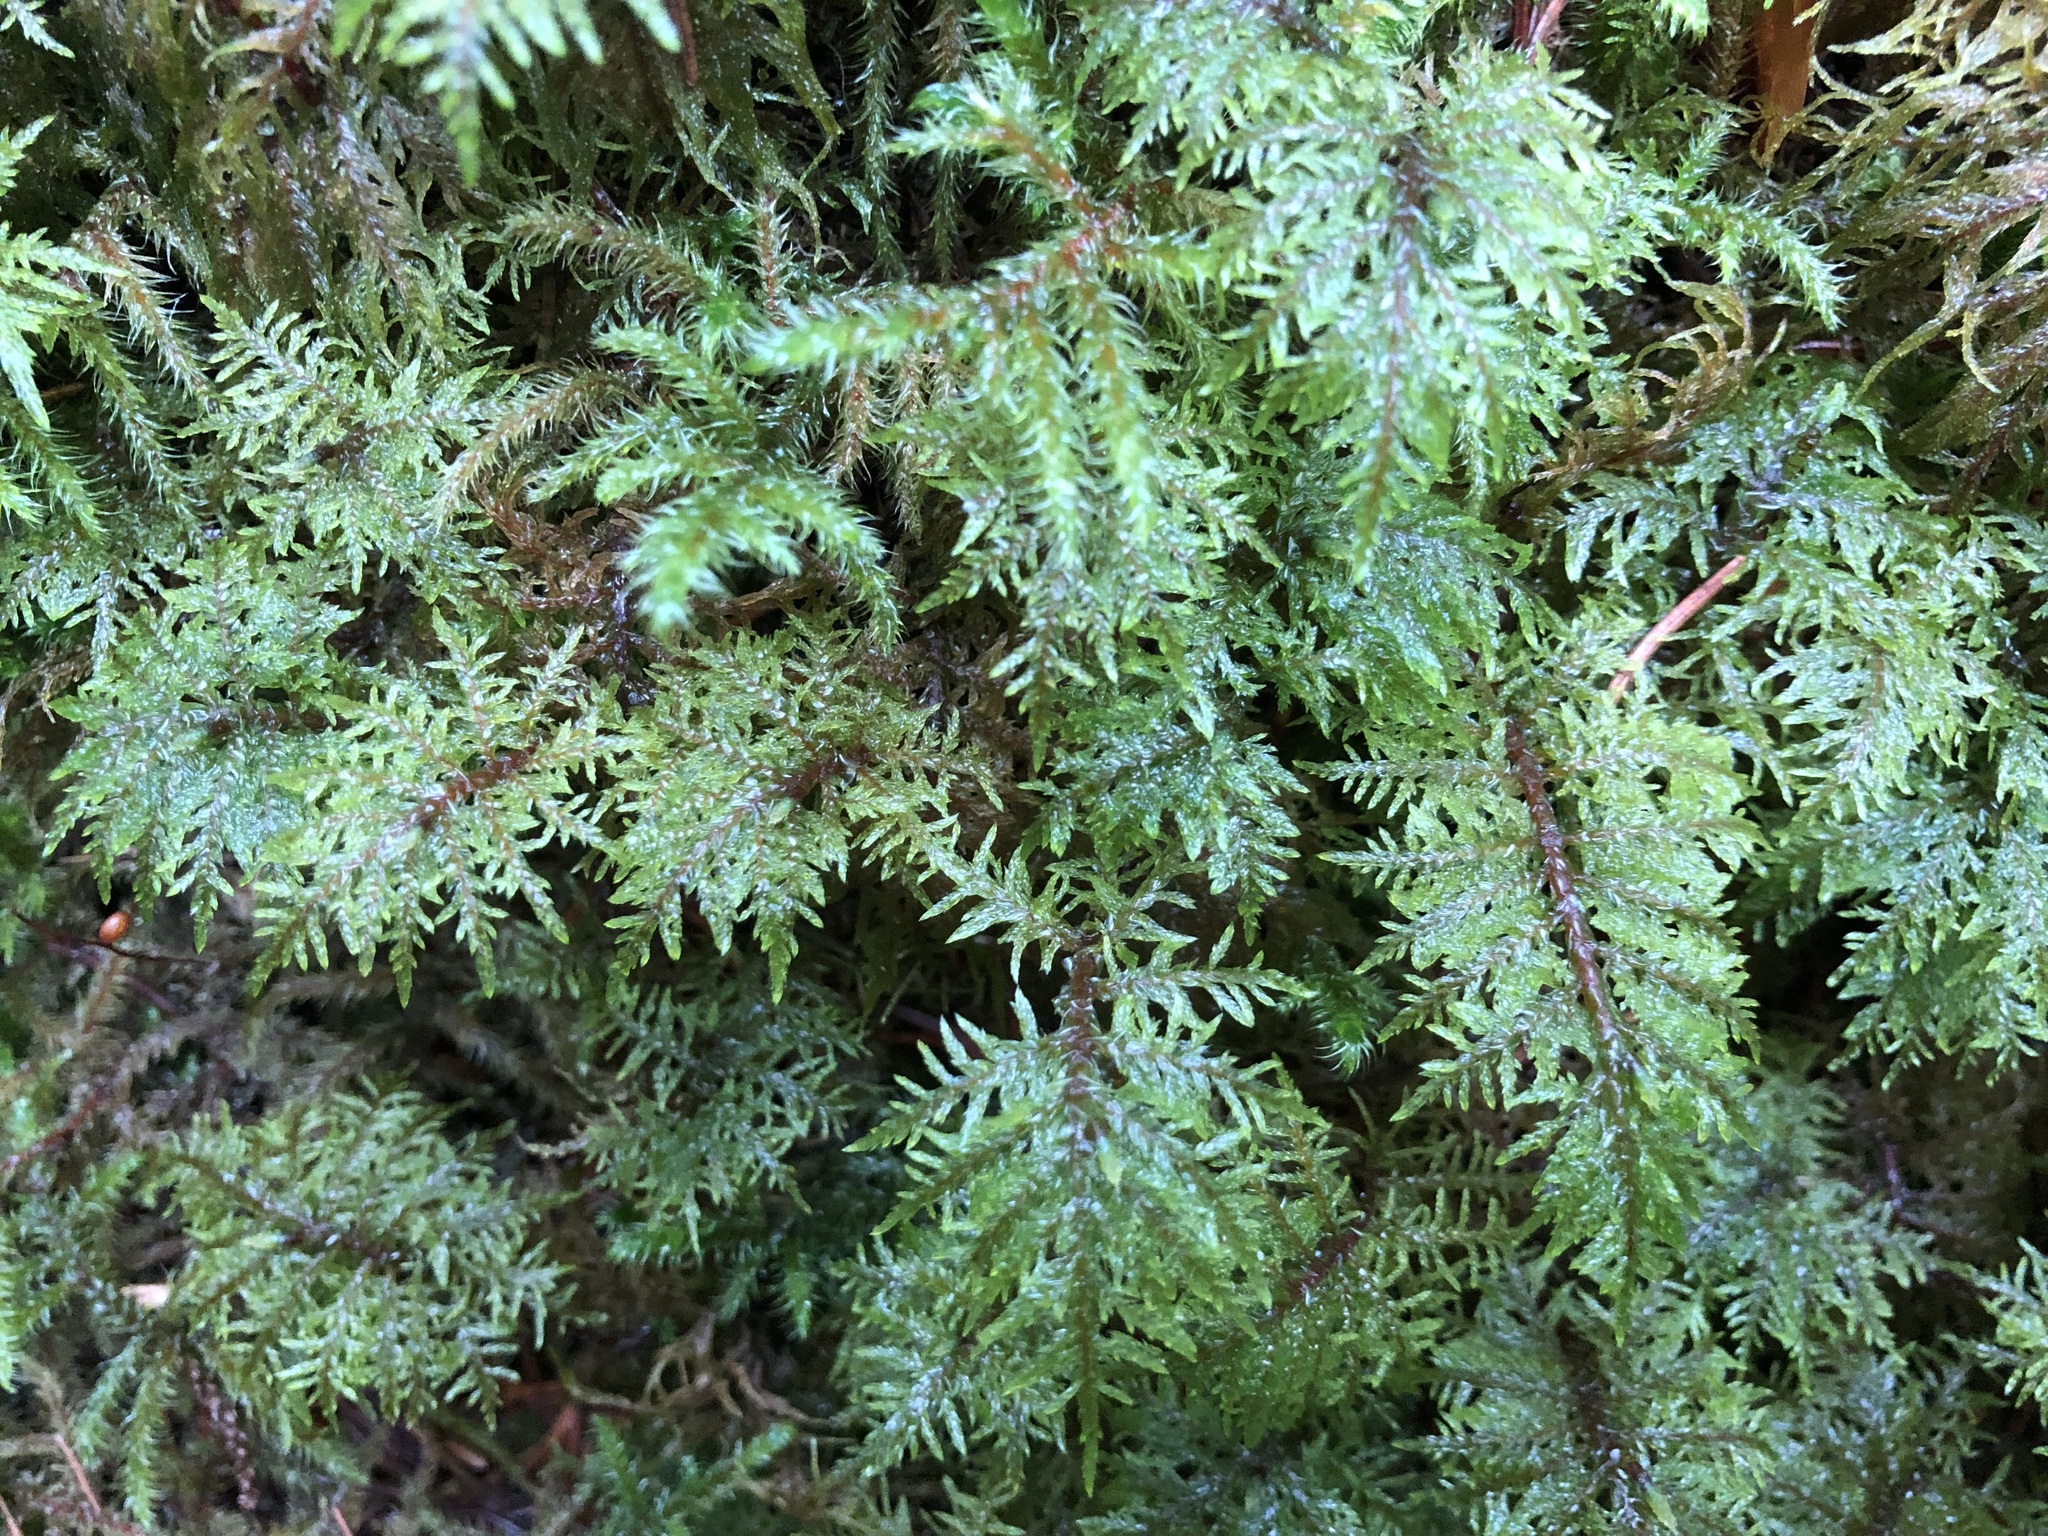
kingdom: Plantae
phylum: Bryophyta
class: Bryopsida
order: Hypnales
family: Hylocomiaceae
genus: Hylocomium
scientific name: Hylocomium splendens
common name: Stairstep moss
